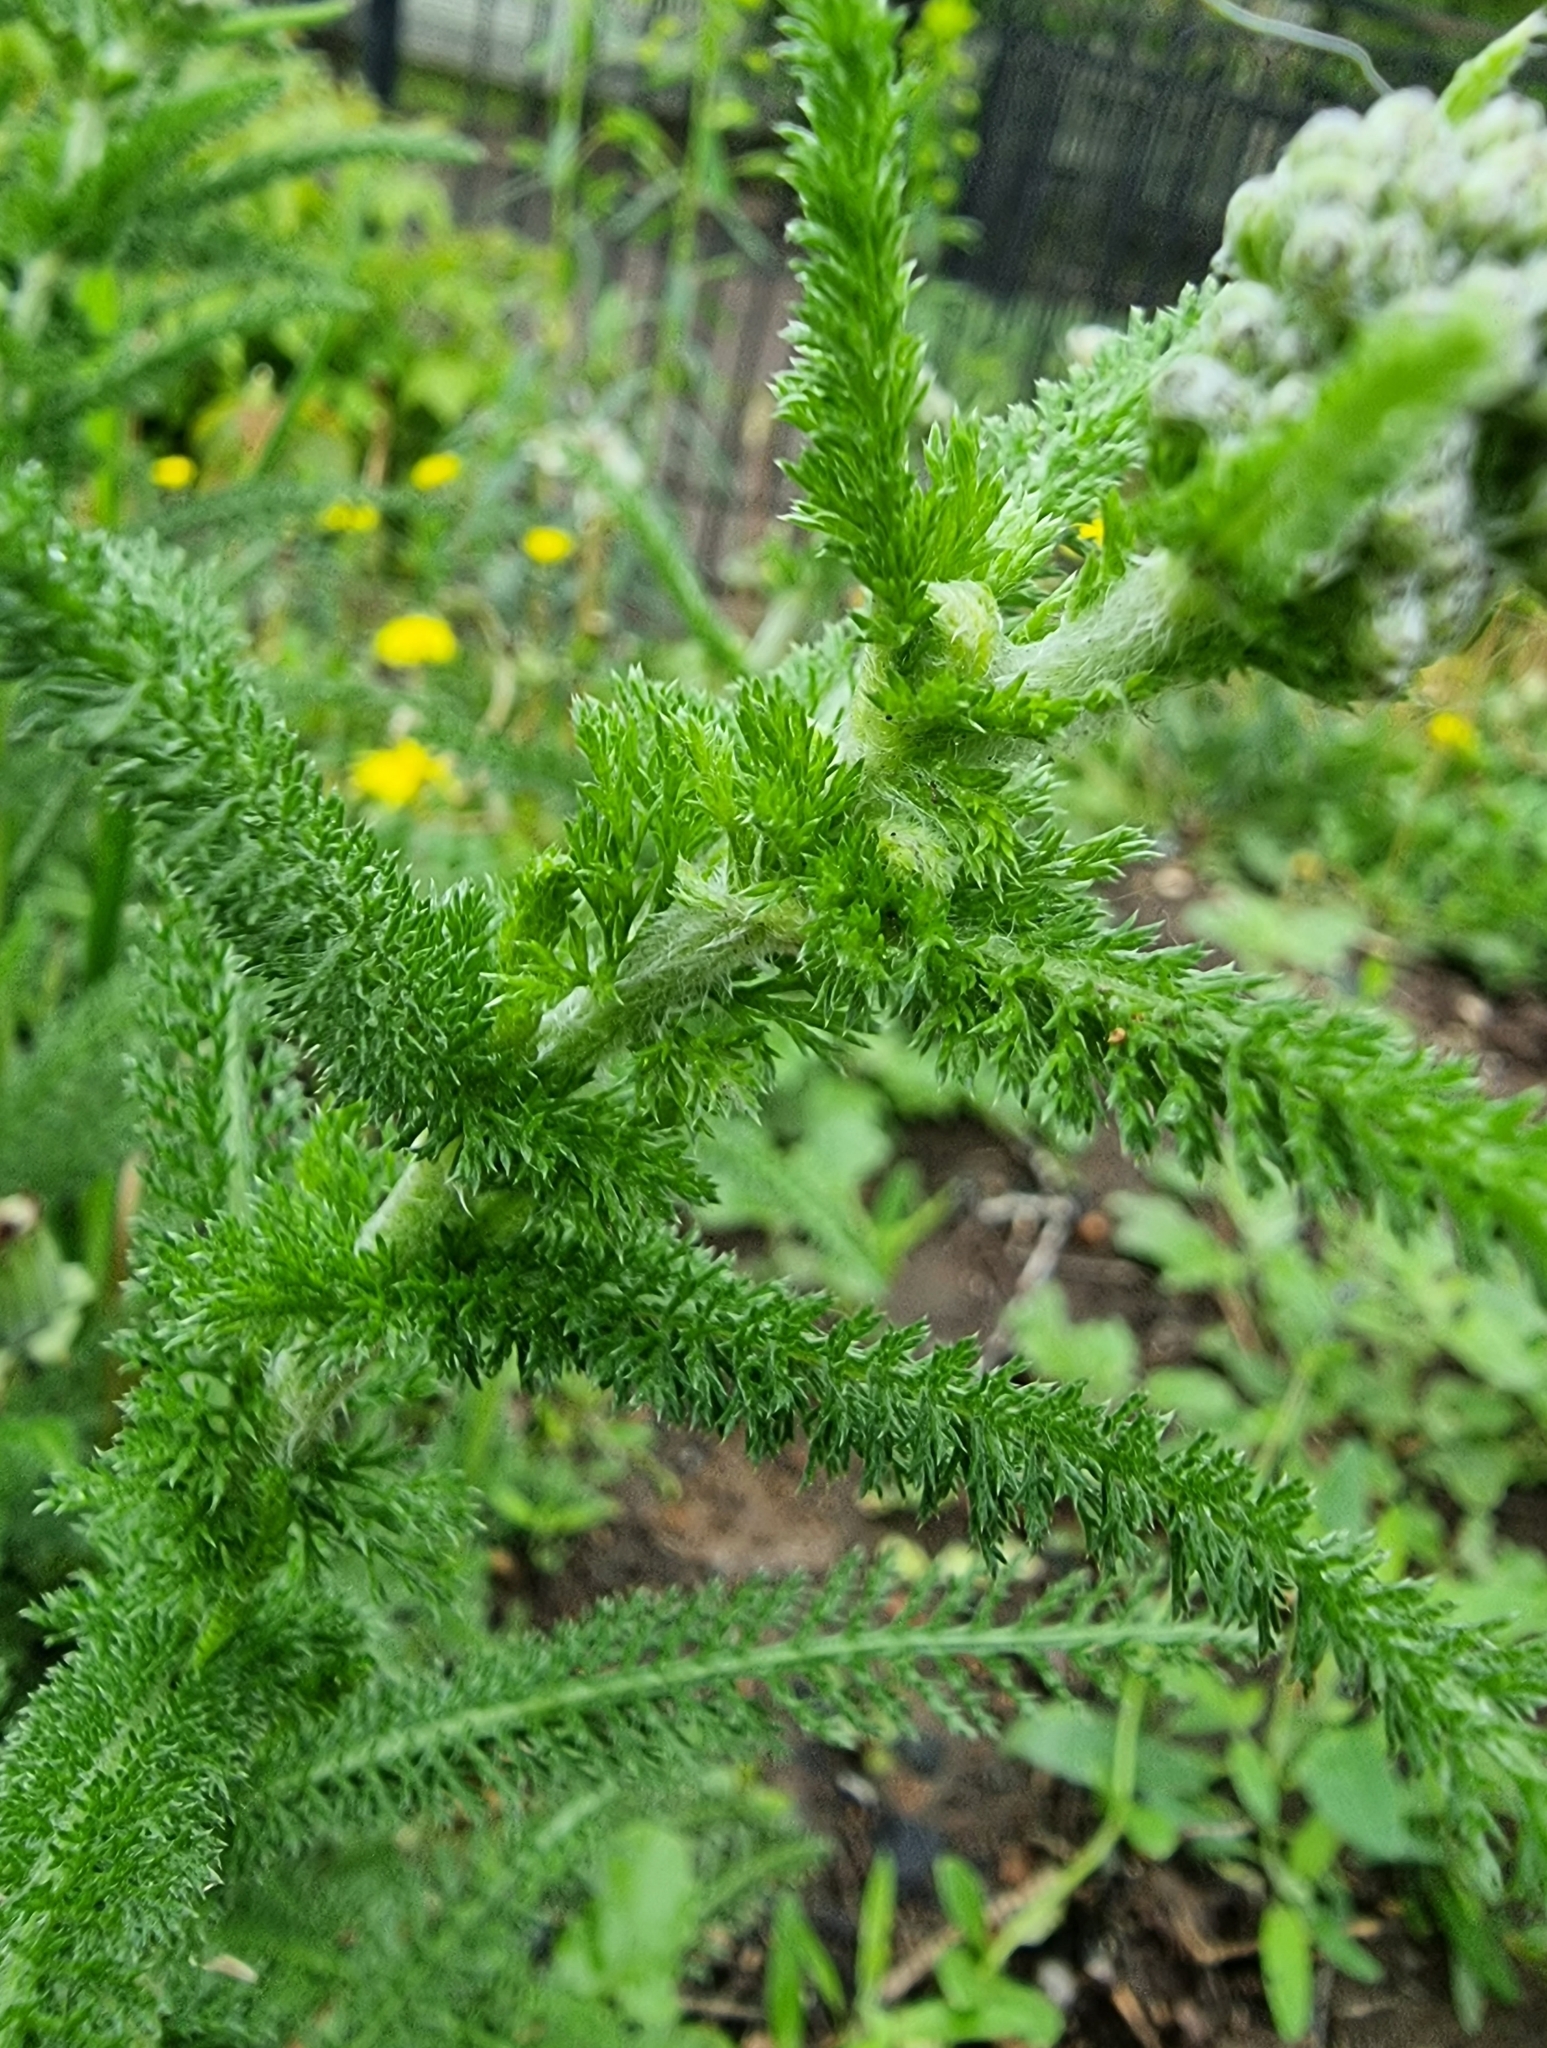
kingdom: Plantae
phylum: Tracheophyta
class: Magnoliopsida
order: Asterales
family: Asteraceae
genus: Achillea
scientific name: Achillea millefolium
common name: Yarrow
